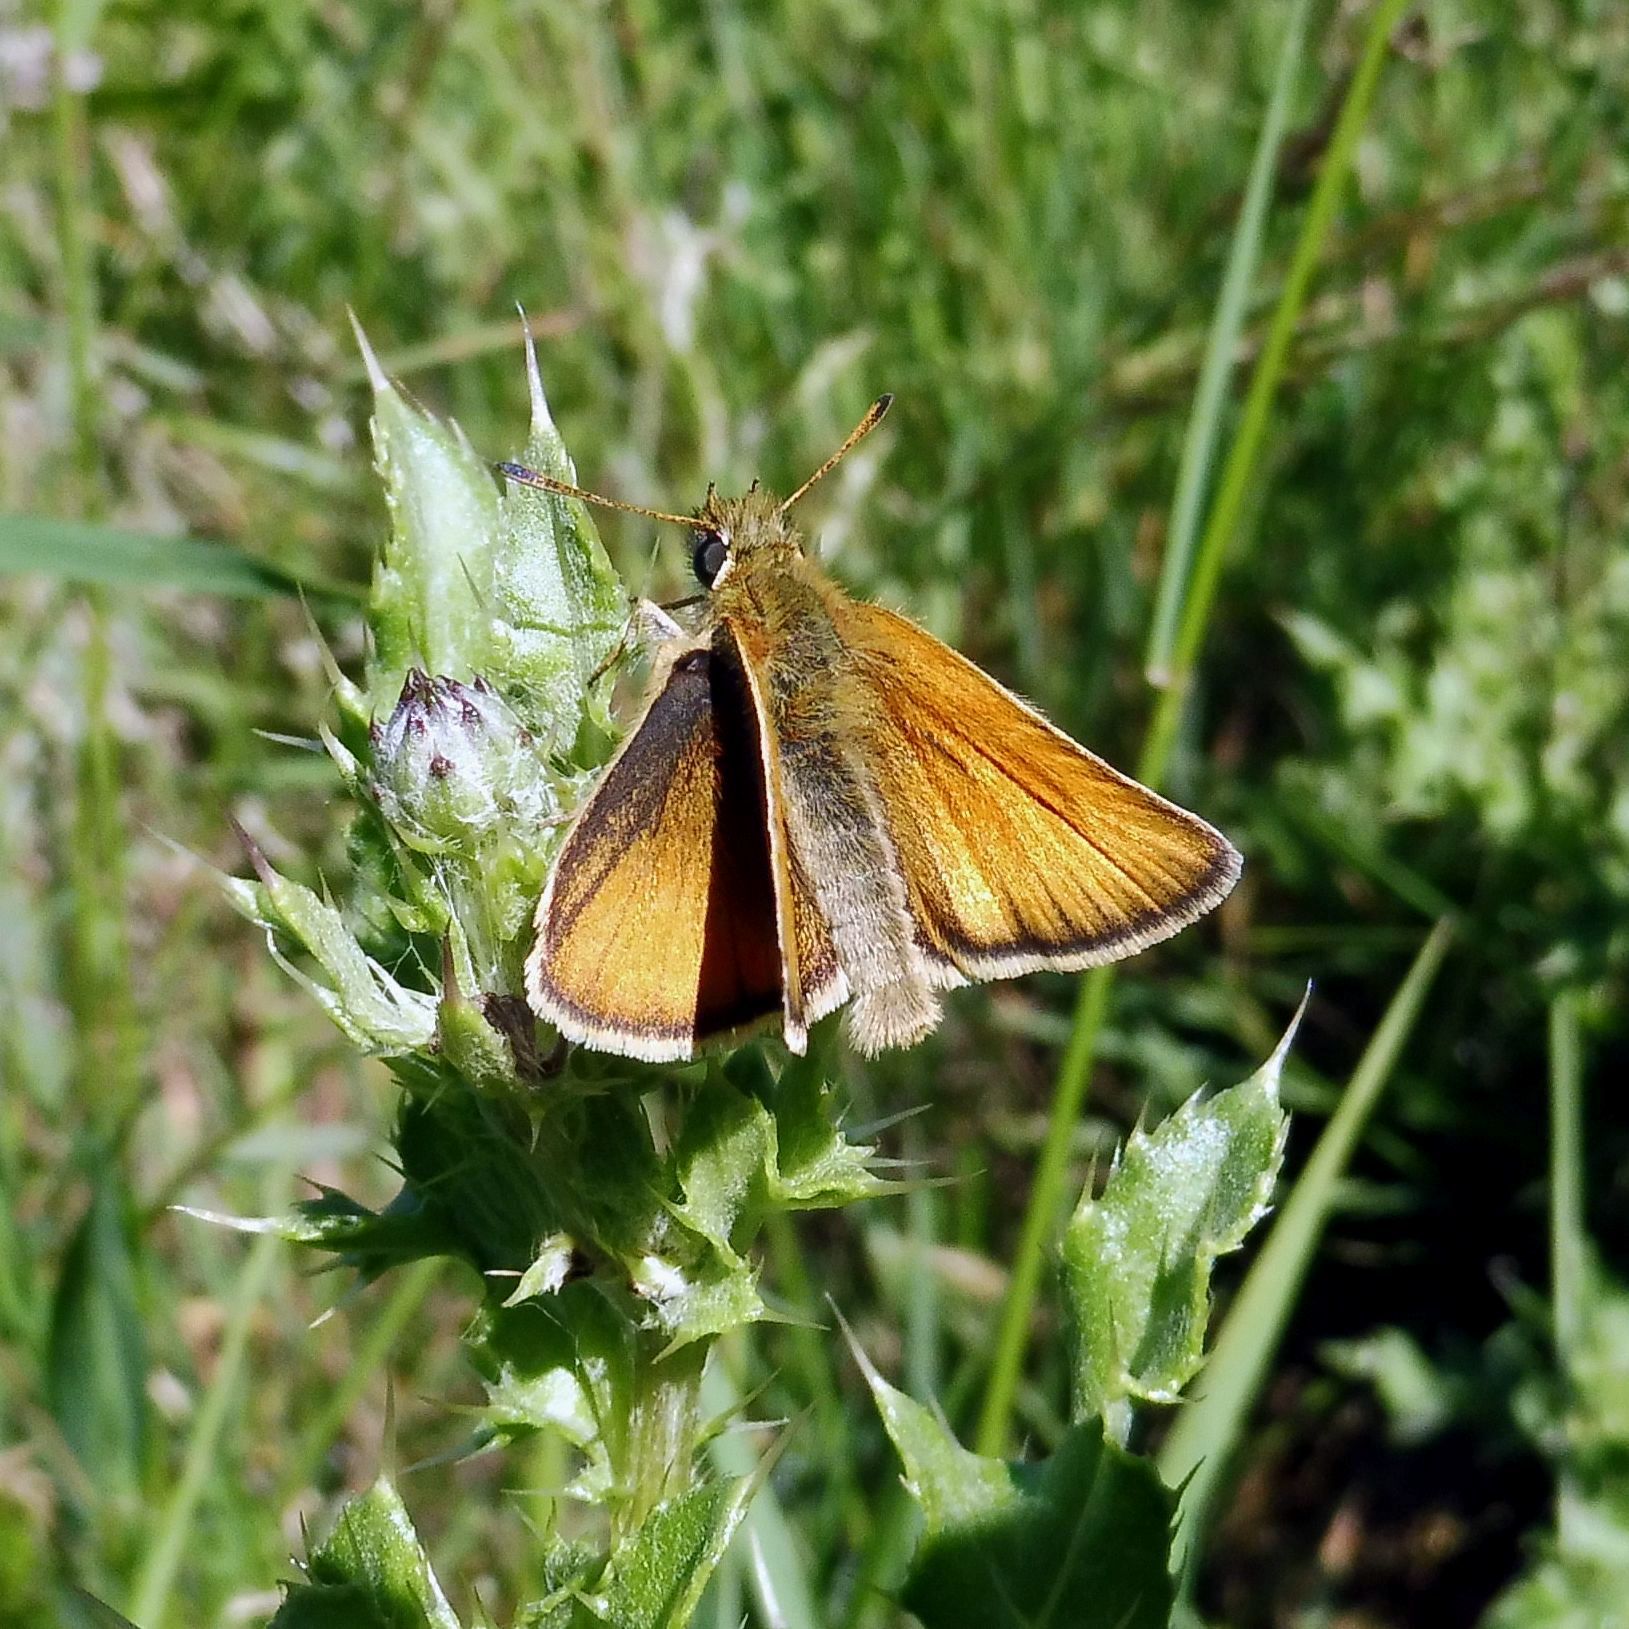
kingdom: Animalia
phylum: Arthropoda
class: Insecta
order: Lepidoptera
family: Hesperiidae
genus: Thymelicus
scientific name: Thymelicus lineola
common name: Essex skipper
